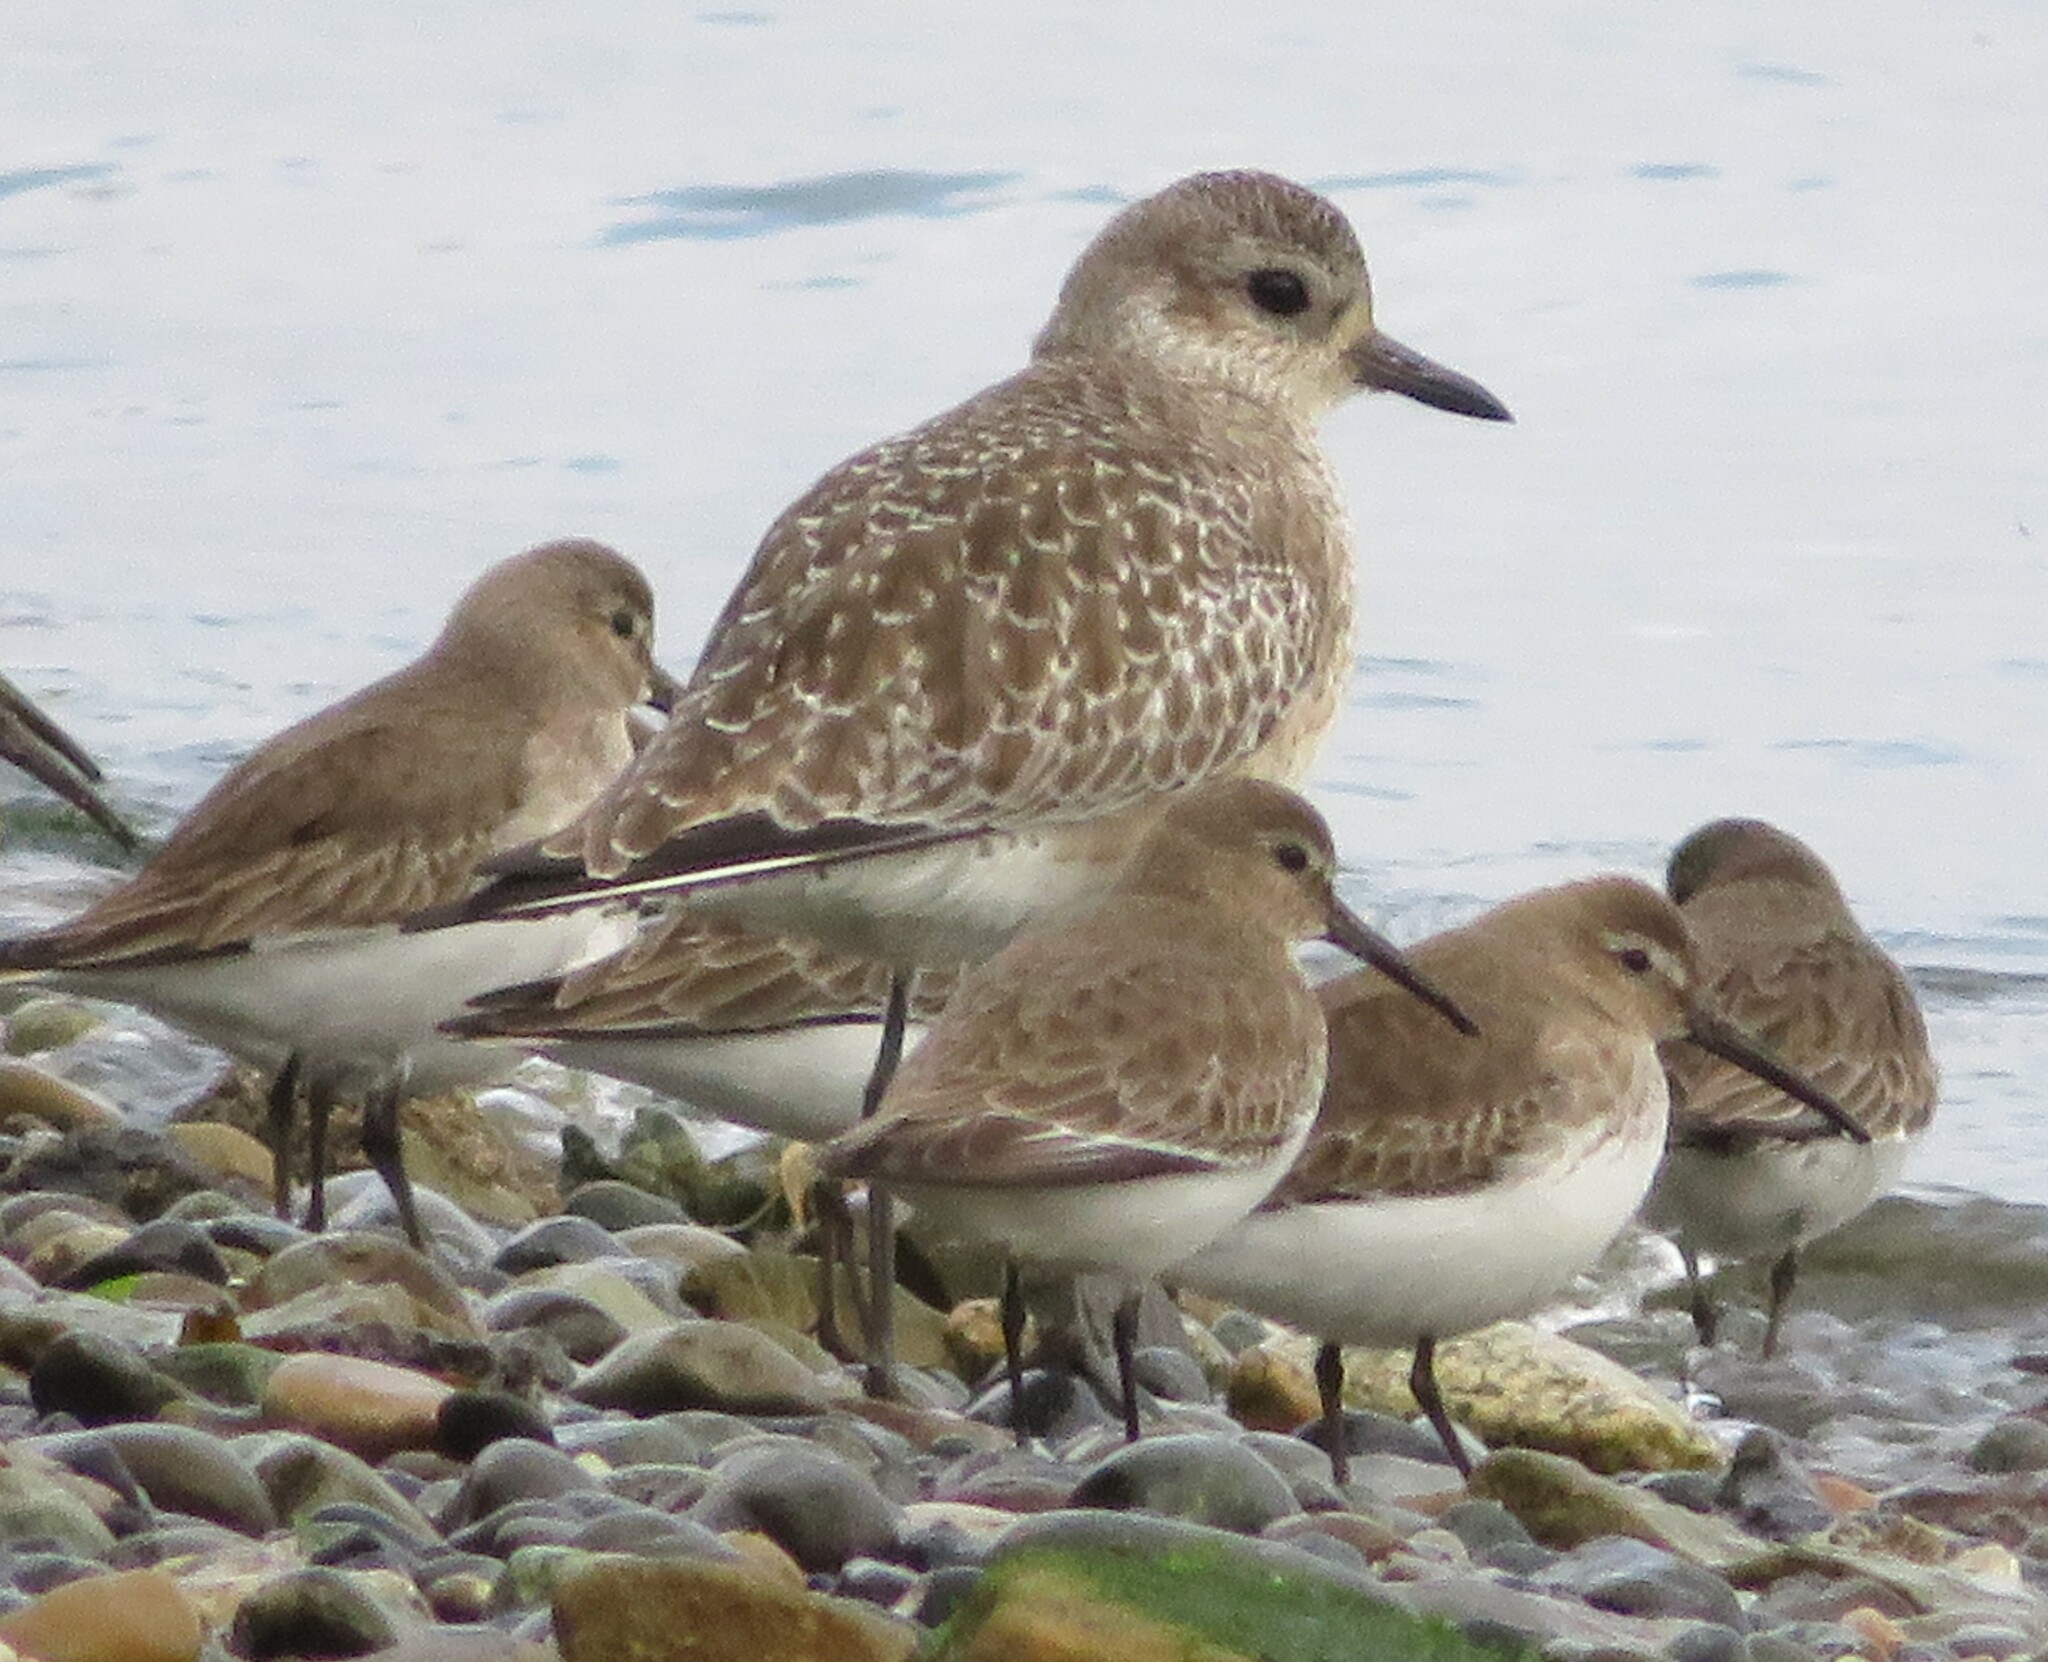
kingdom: Animalia
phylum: Chordata
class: Aves
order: Charadriiformes
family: Scolopacidae
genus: Calidris
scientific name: Calidris alpina
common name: Dunlin
